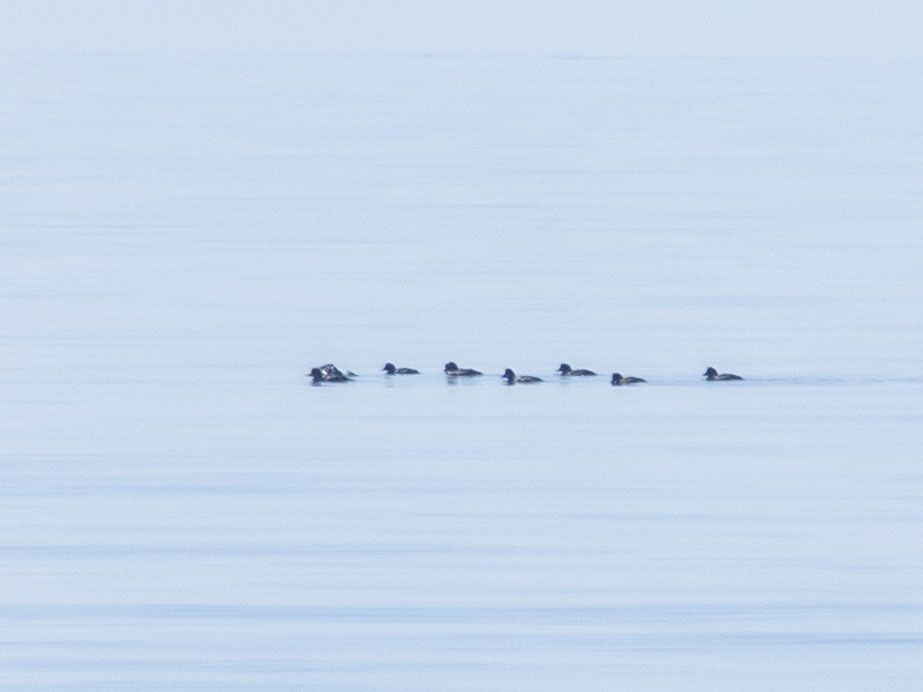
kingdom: Animalia
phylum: Chordata
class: Aves
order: Anseriformes
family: Anatidae
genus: Bucephala
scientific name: Bucephala clangula
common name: Common goldeneye
